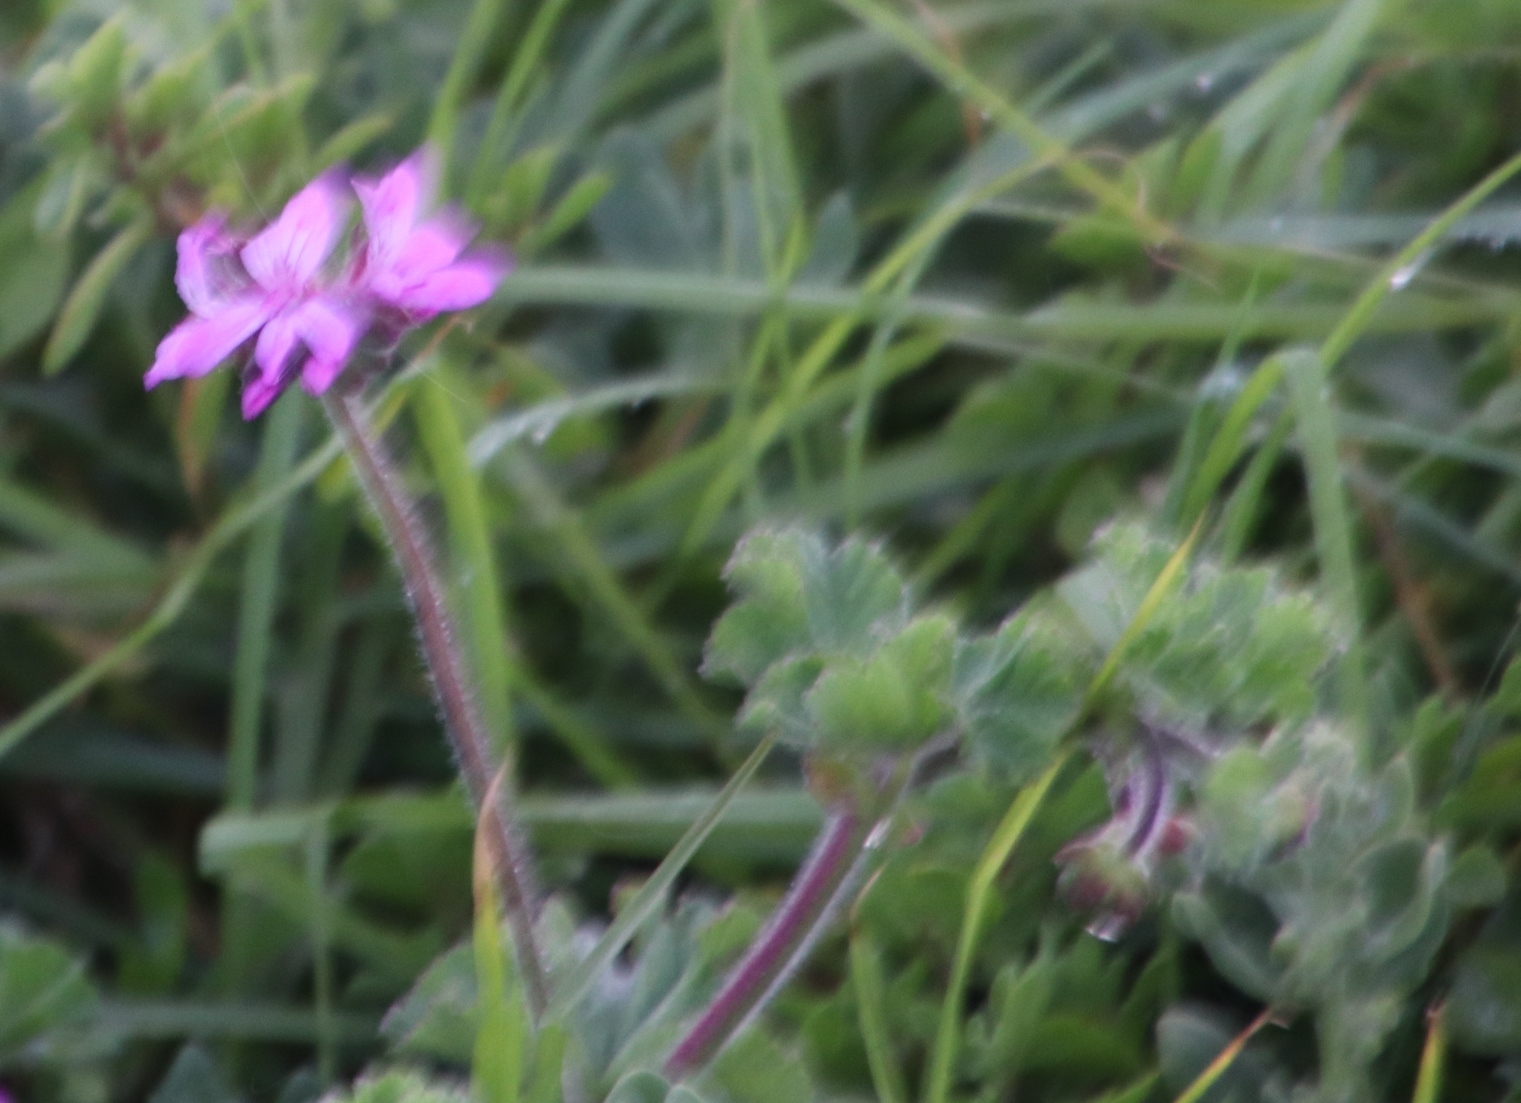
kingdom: Plantae
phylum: Tracheophyta
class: Magnoliopsida
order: Geraniales
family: Geraniaceae
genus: Pelargonium
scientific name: Pelargonium capitatum
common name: Rose scented geranium
